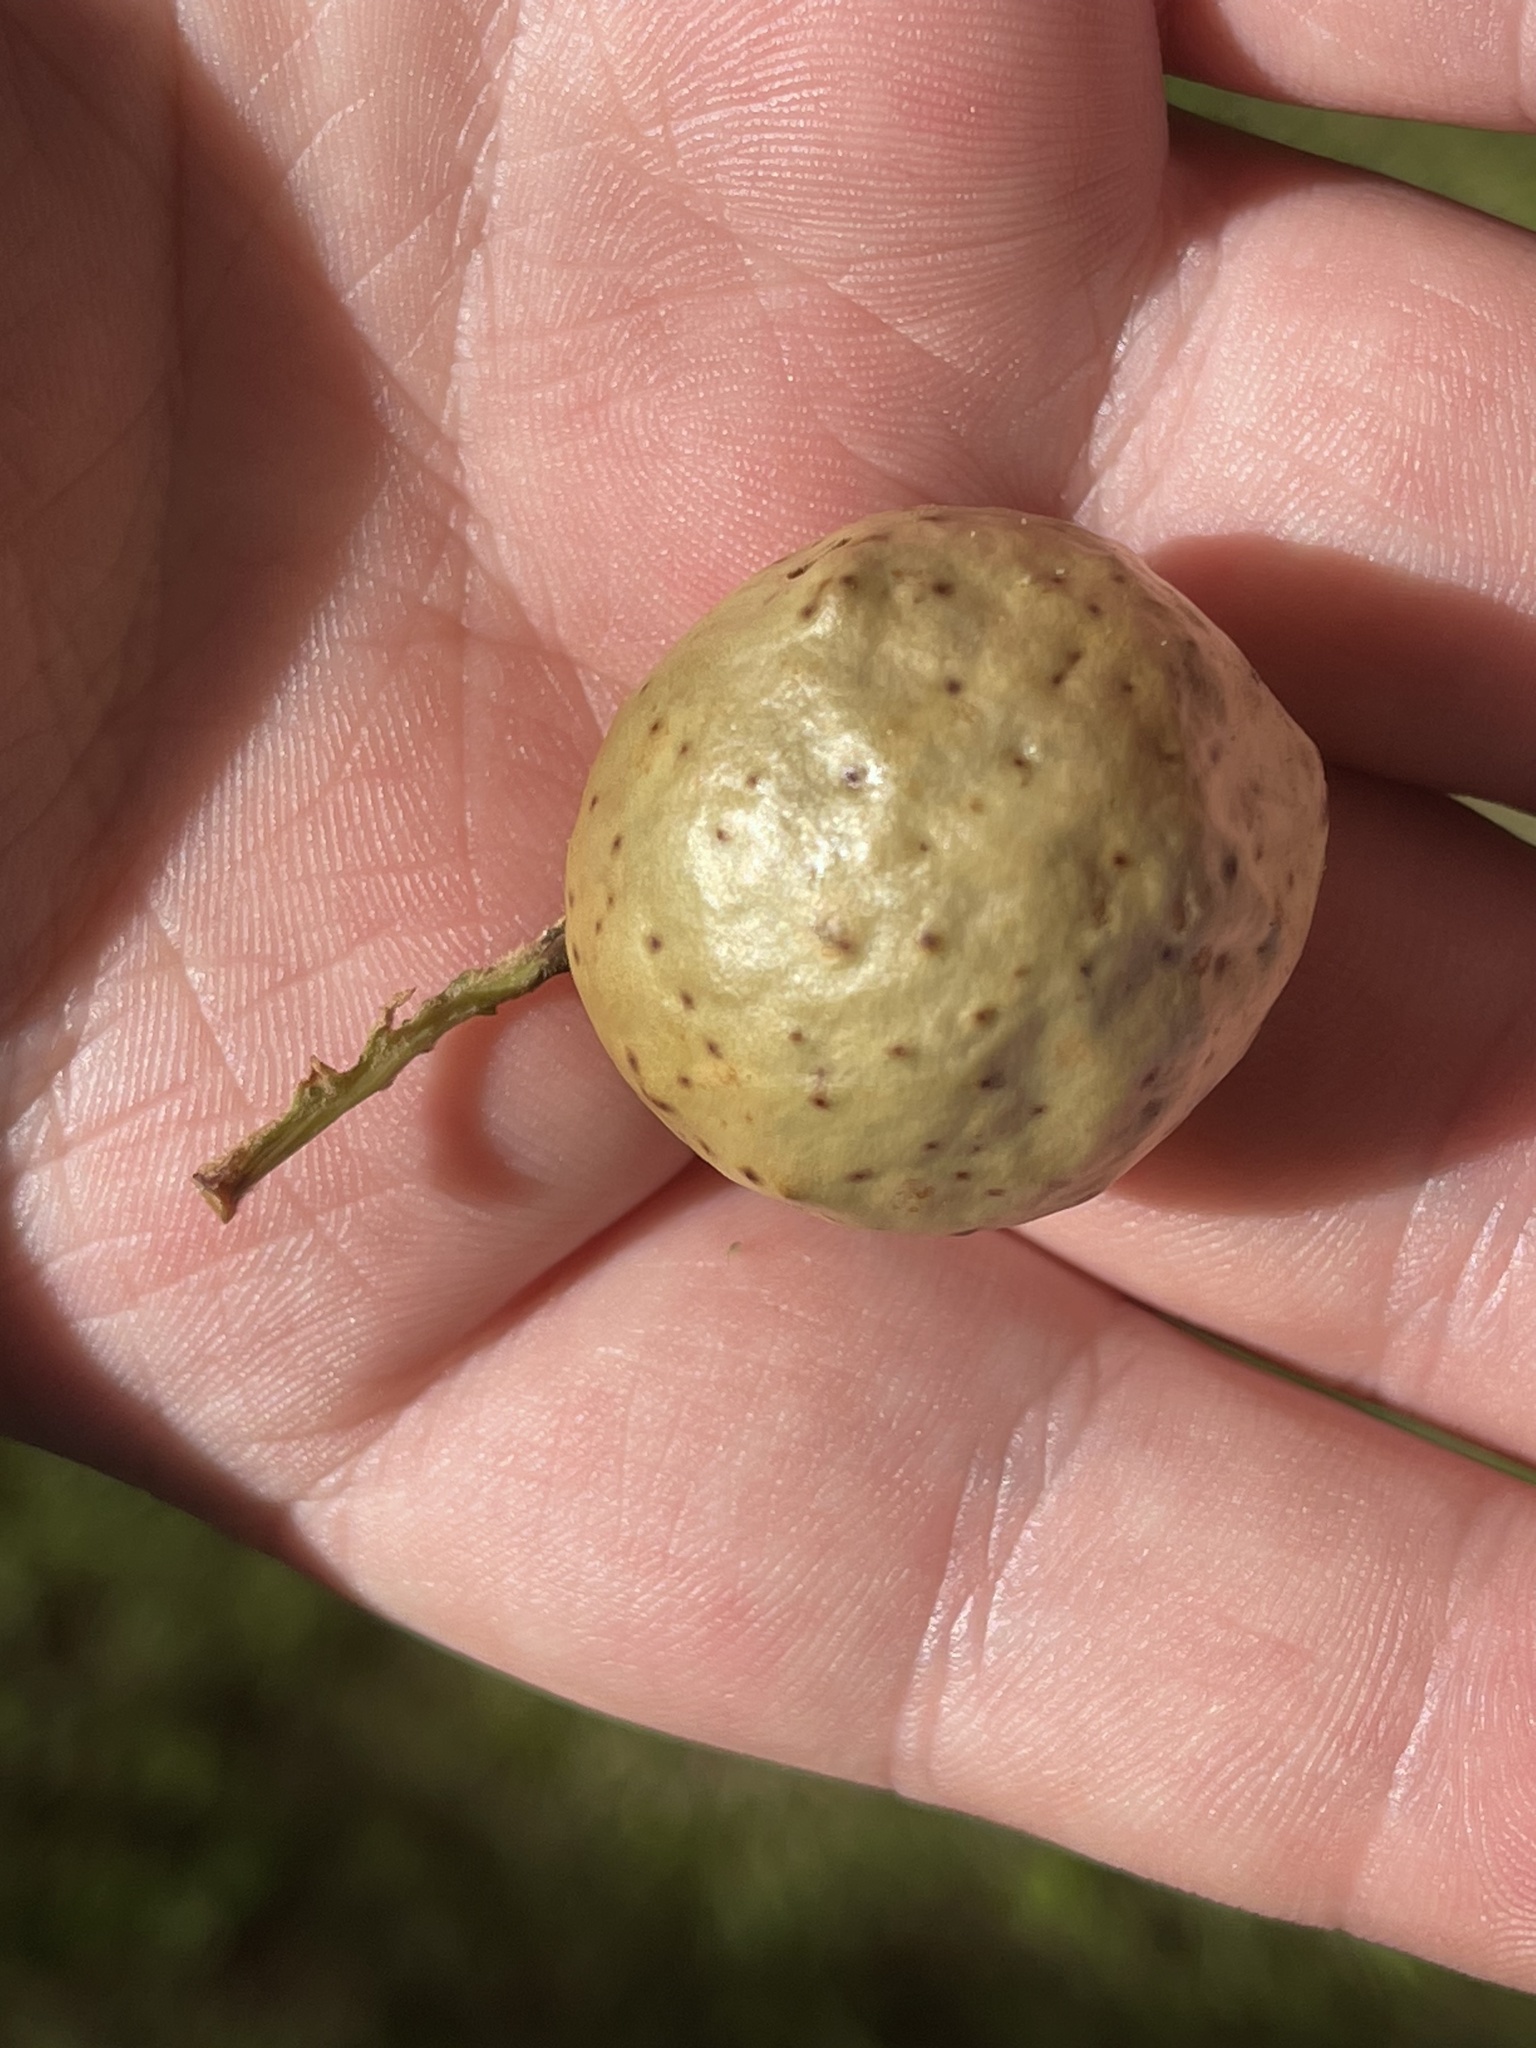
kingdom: Animalia
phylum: Arthropoda
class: Insecta
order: Hymenoptera
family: Cynipidae
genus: Amphibolips
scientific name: Amphibolips
